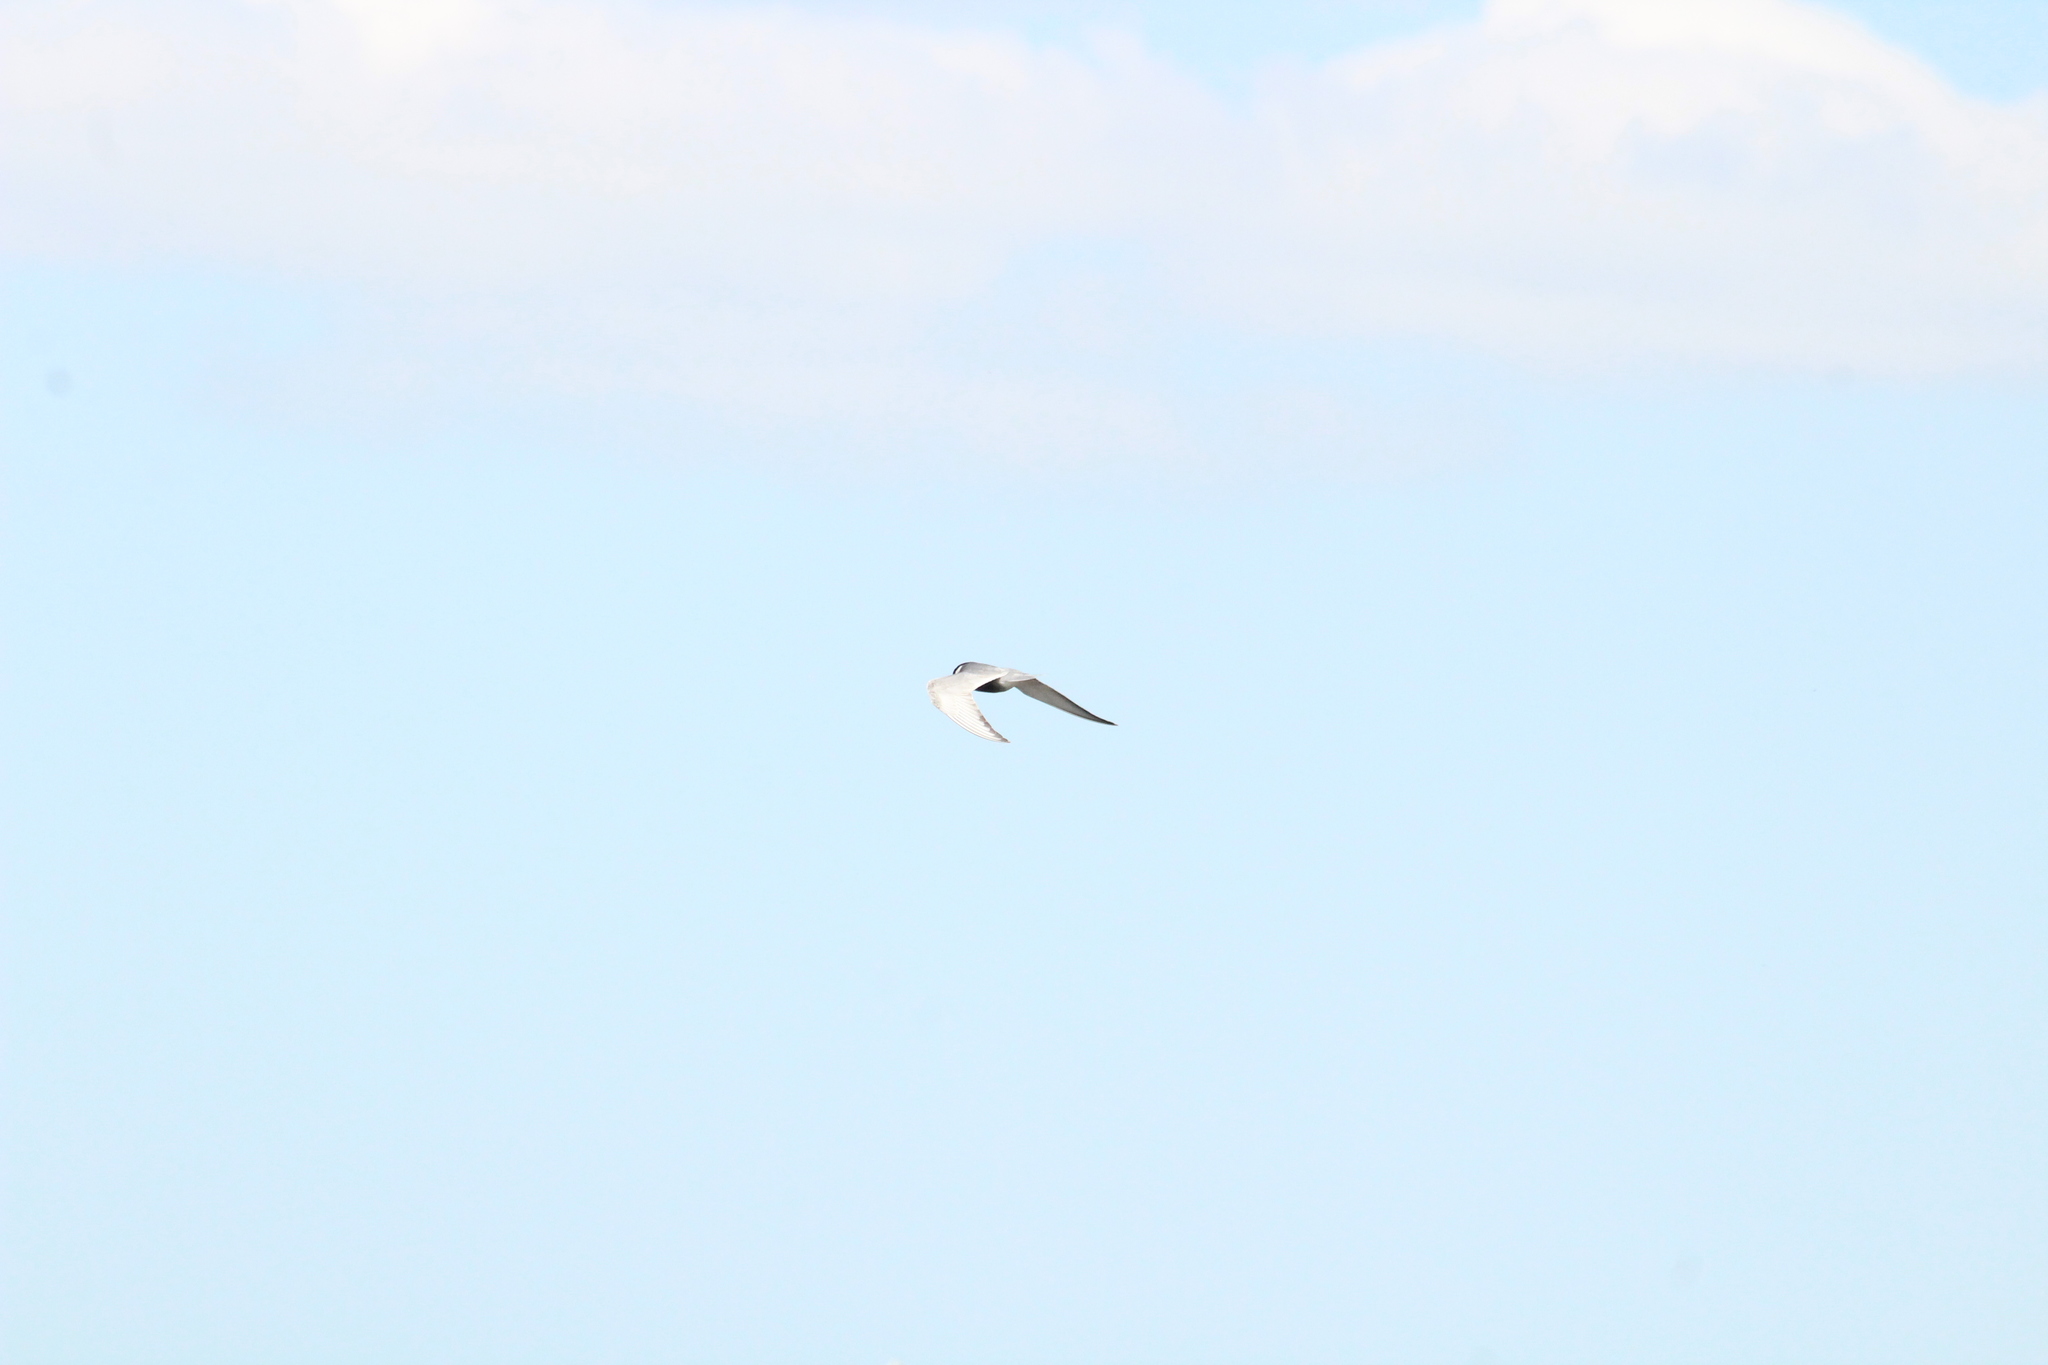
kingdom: Animalia
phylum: Chordata
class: Aves
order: Charadriiformes
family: Laridae
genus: Chlidonias
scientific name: Chlidonias hybrida
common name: Whiskered tern
